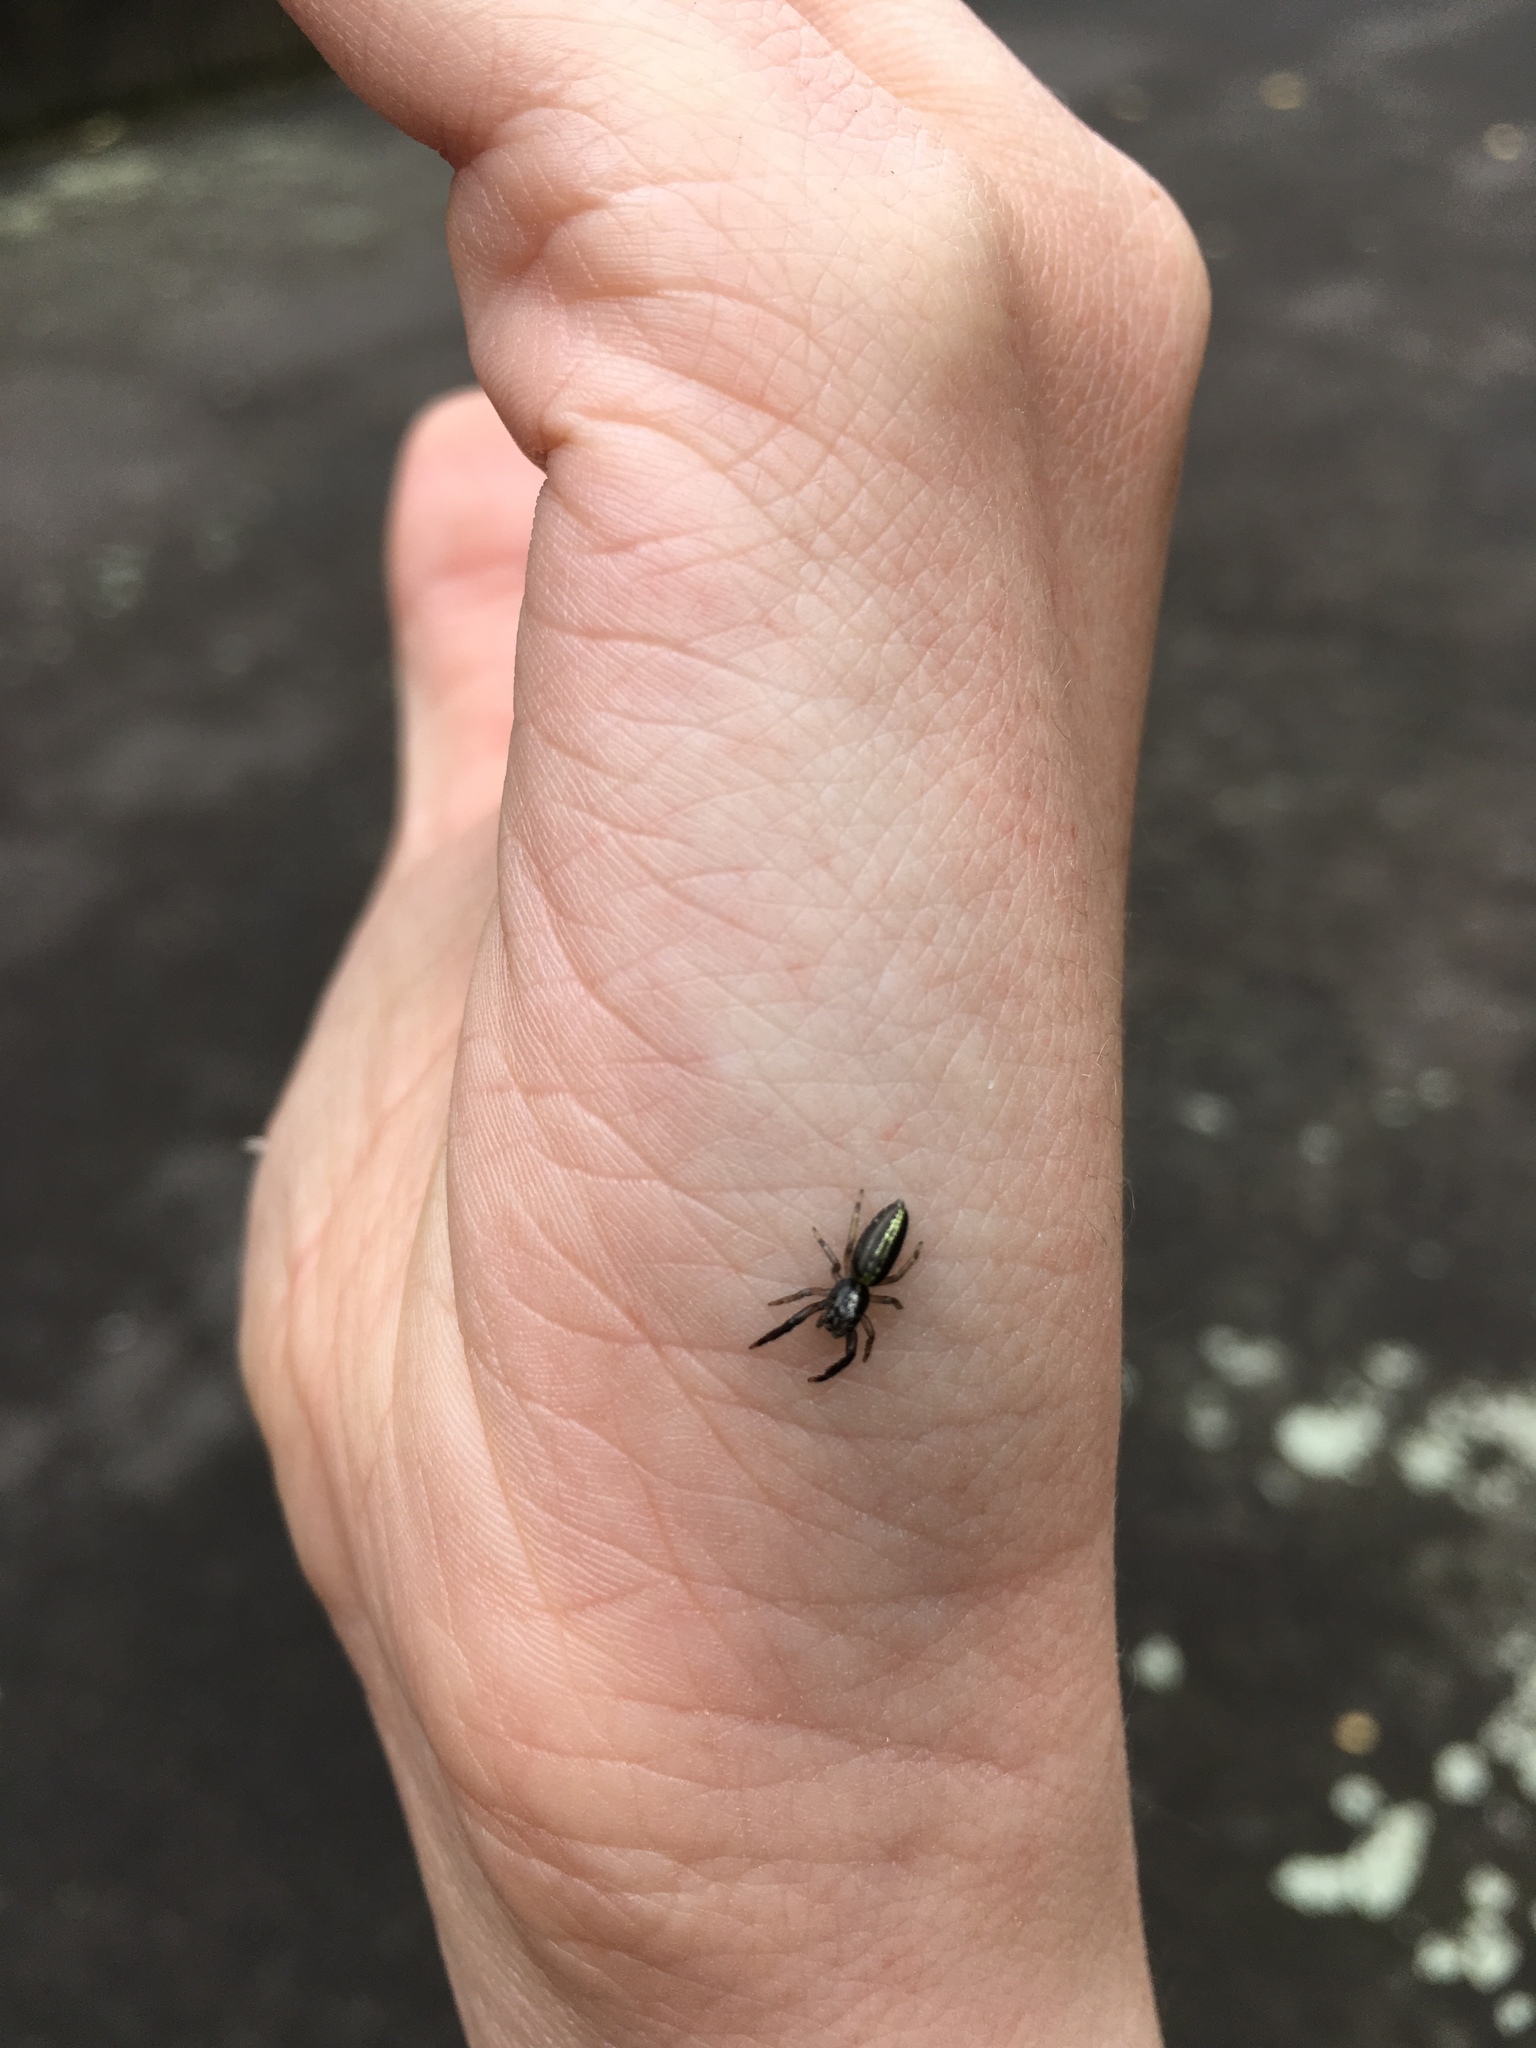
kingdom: Animalia
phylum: Arthropoda
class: Arachnida
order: Araneae
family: Salticidae
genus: Trite
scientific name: Trite planiceps
